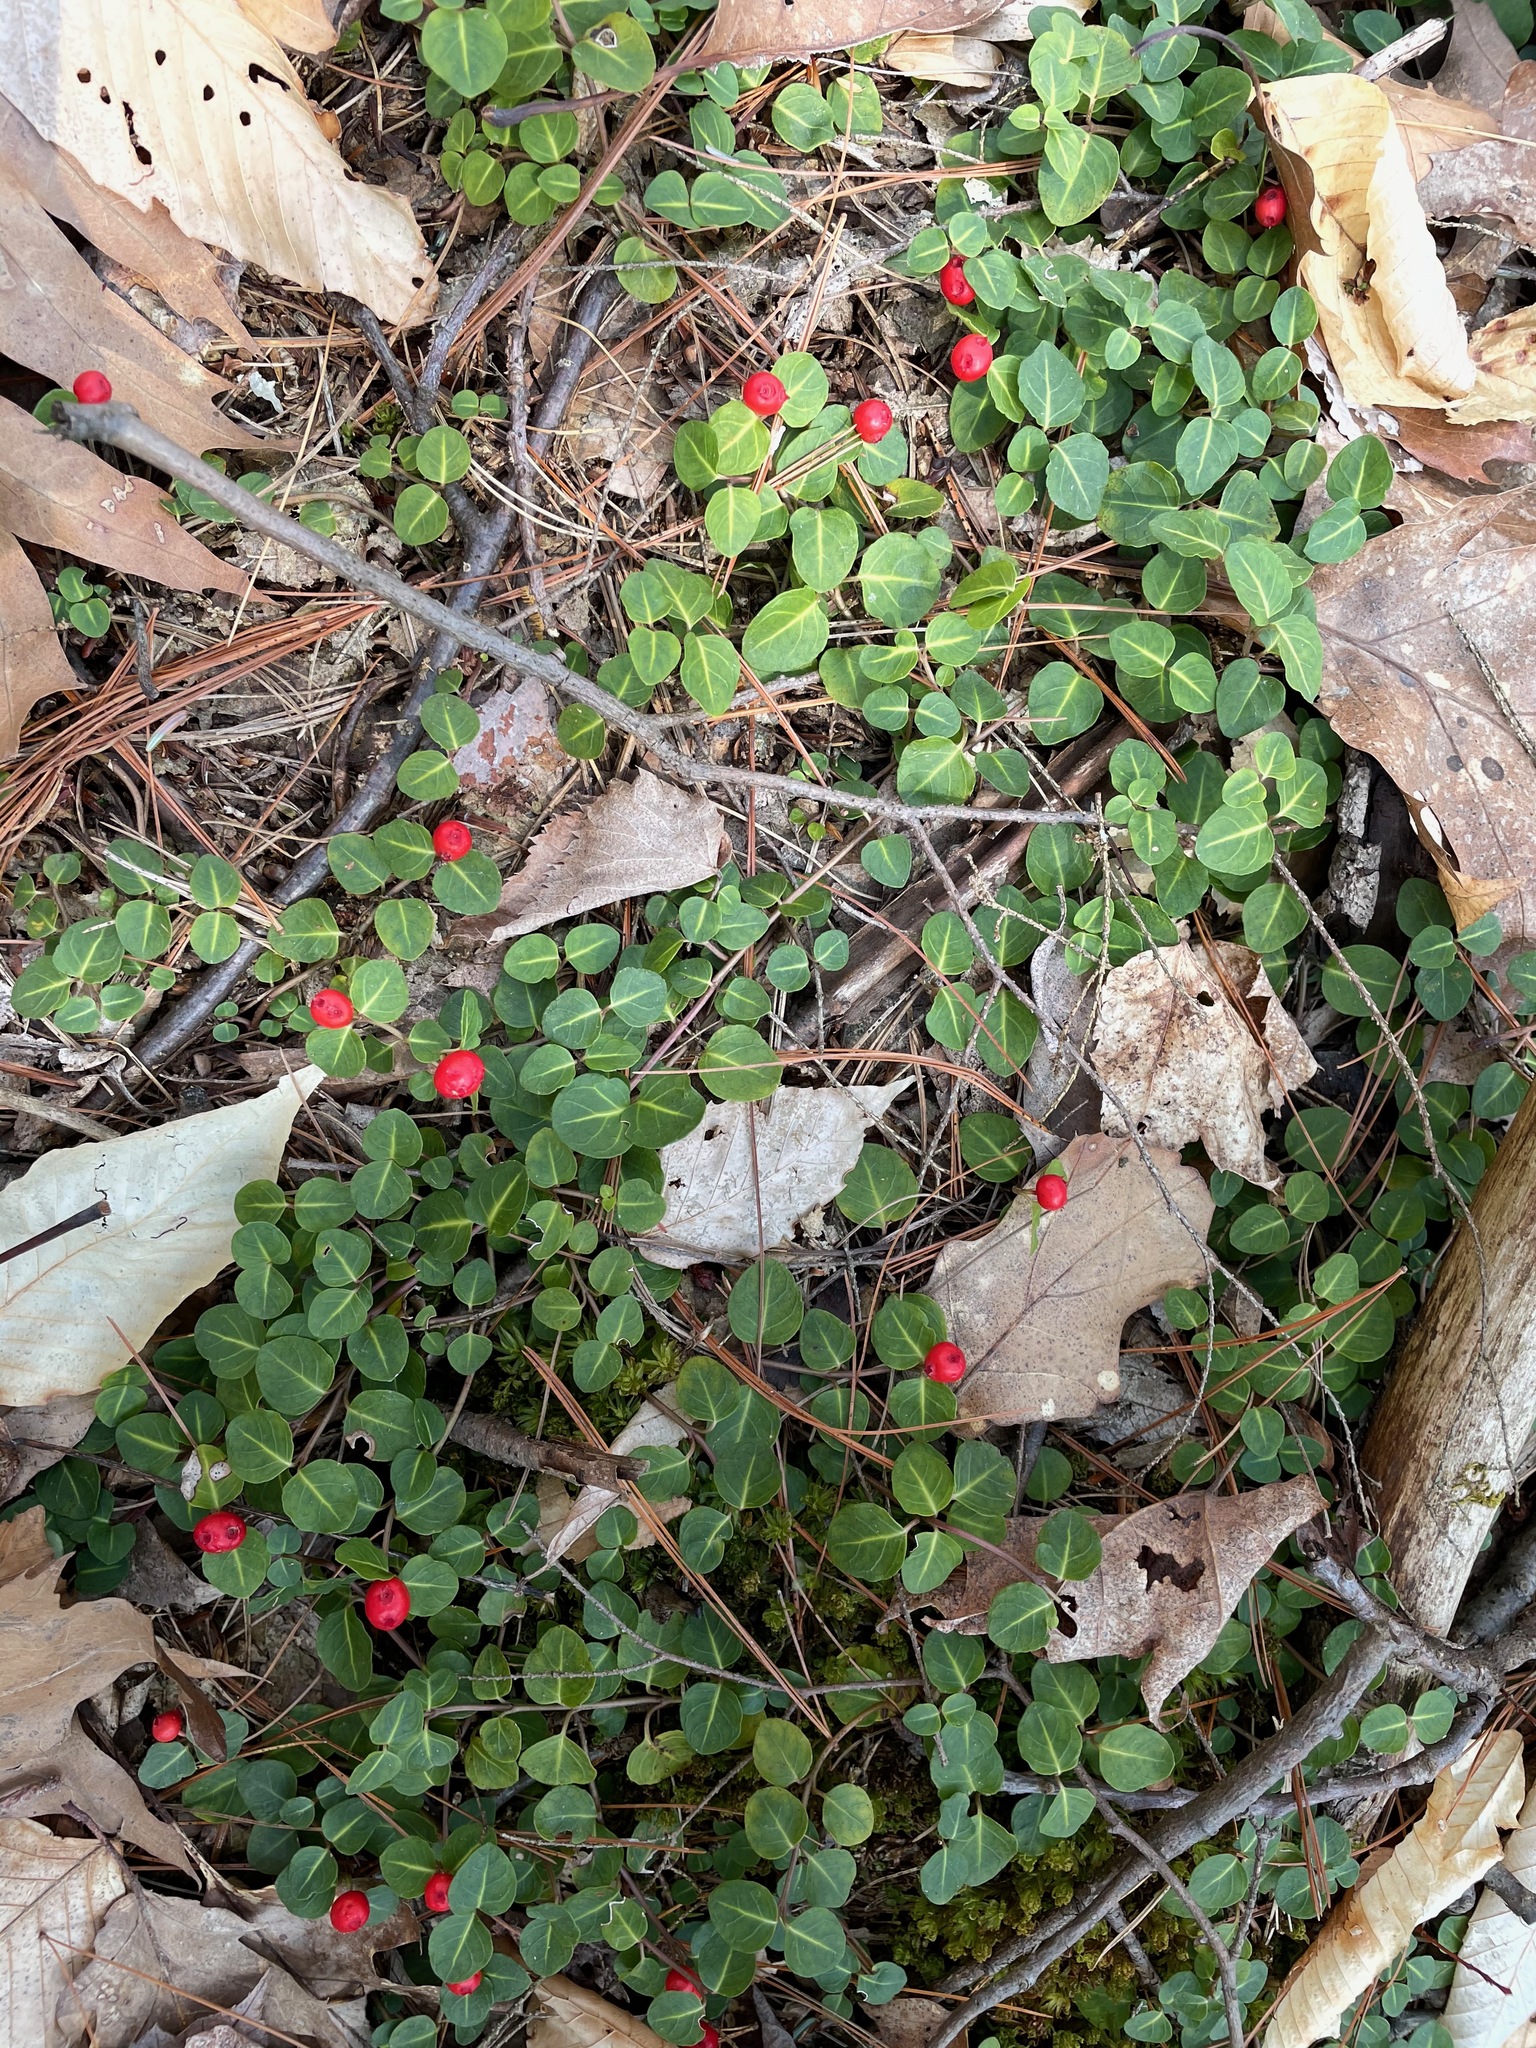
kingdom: Plantae
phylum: Tracheophyta
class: Magnoliopsida
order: Gentianales
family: Rubiaceae
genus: Mitchella
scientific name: Mitchella repens
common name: Partridge-berry
